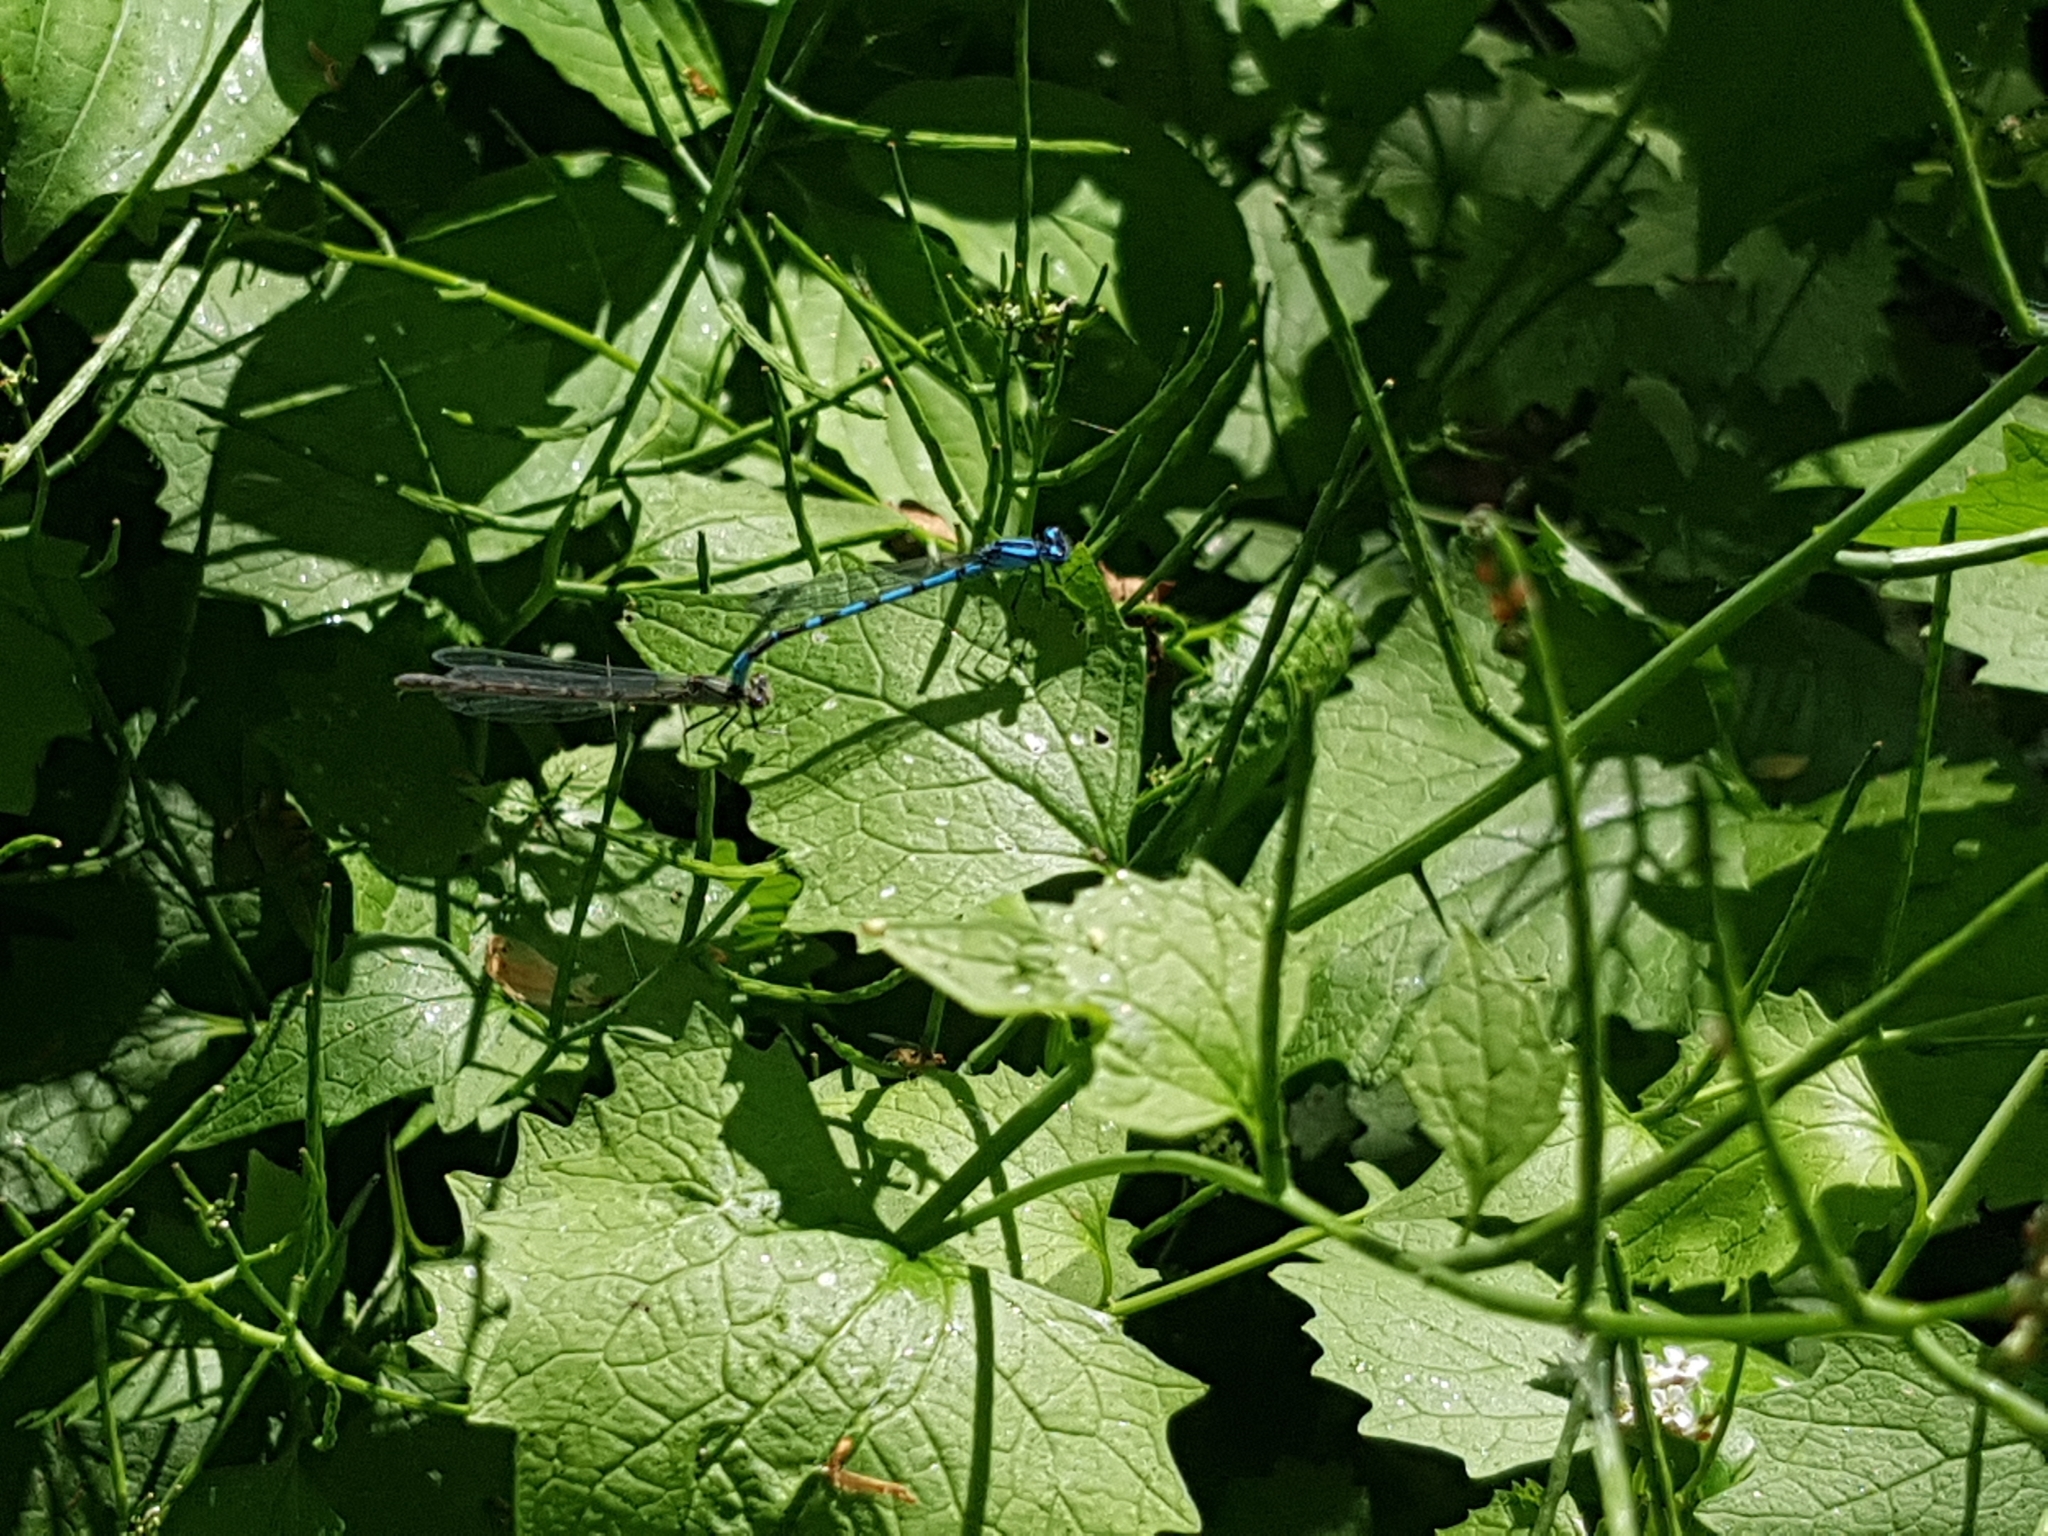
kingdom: Animalia
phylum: Arthropoda
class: Insecta
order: Odonata
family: Coenagrionidae
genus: Enallagma
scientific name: Enallagma cyathigerum
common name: Common blue damselfly
